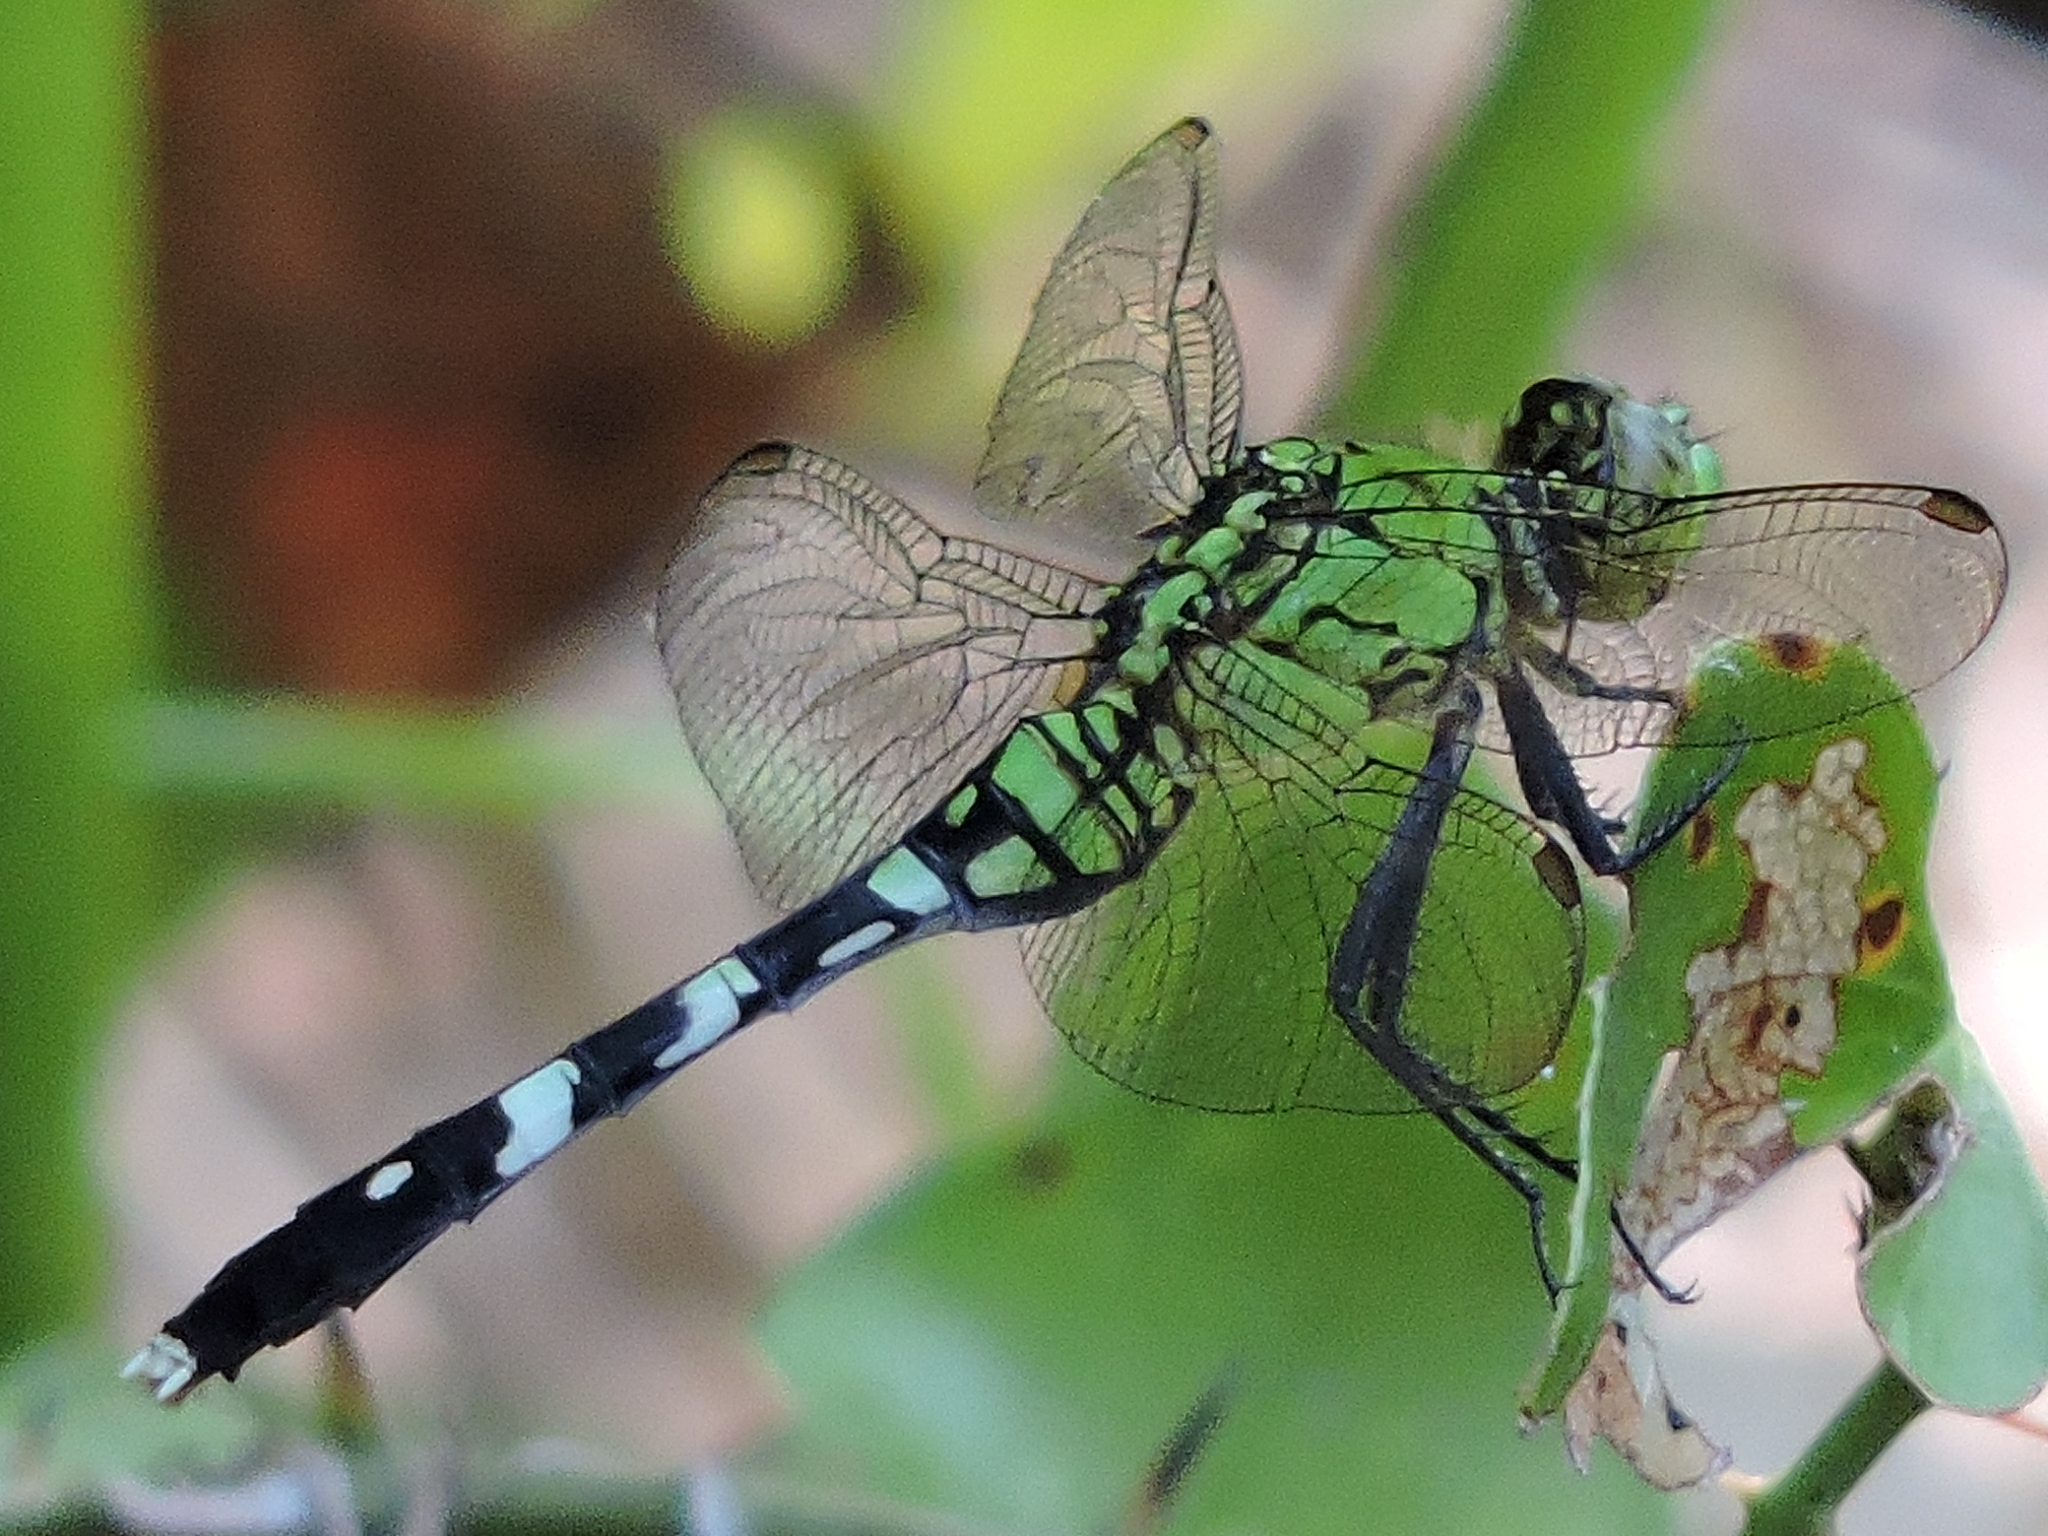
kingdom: Animalia
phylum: Arthropoda
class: Insecta
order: Odonata
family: Libellulidae
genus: Erythemis
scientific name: Erythemis simplicicollis
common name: Eastern pondhawk
